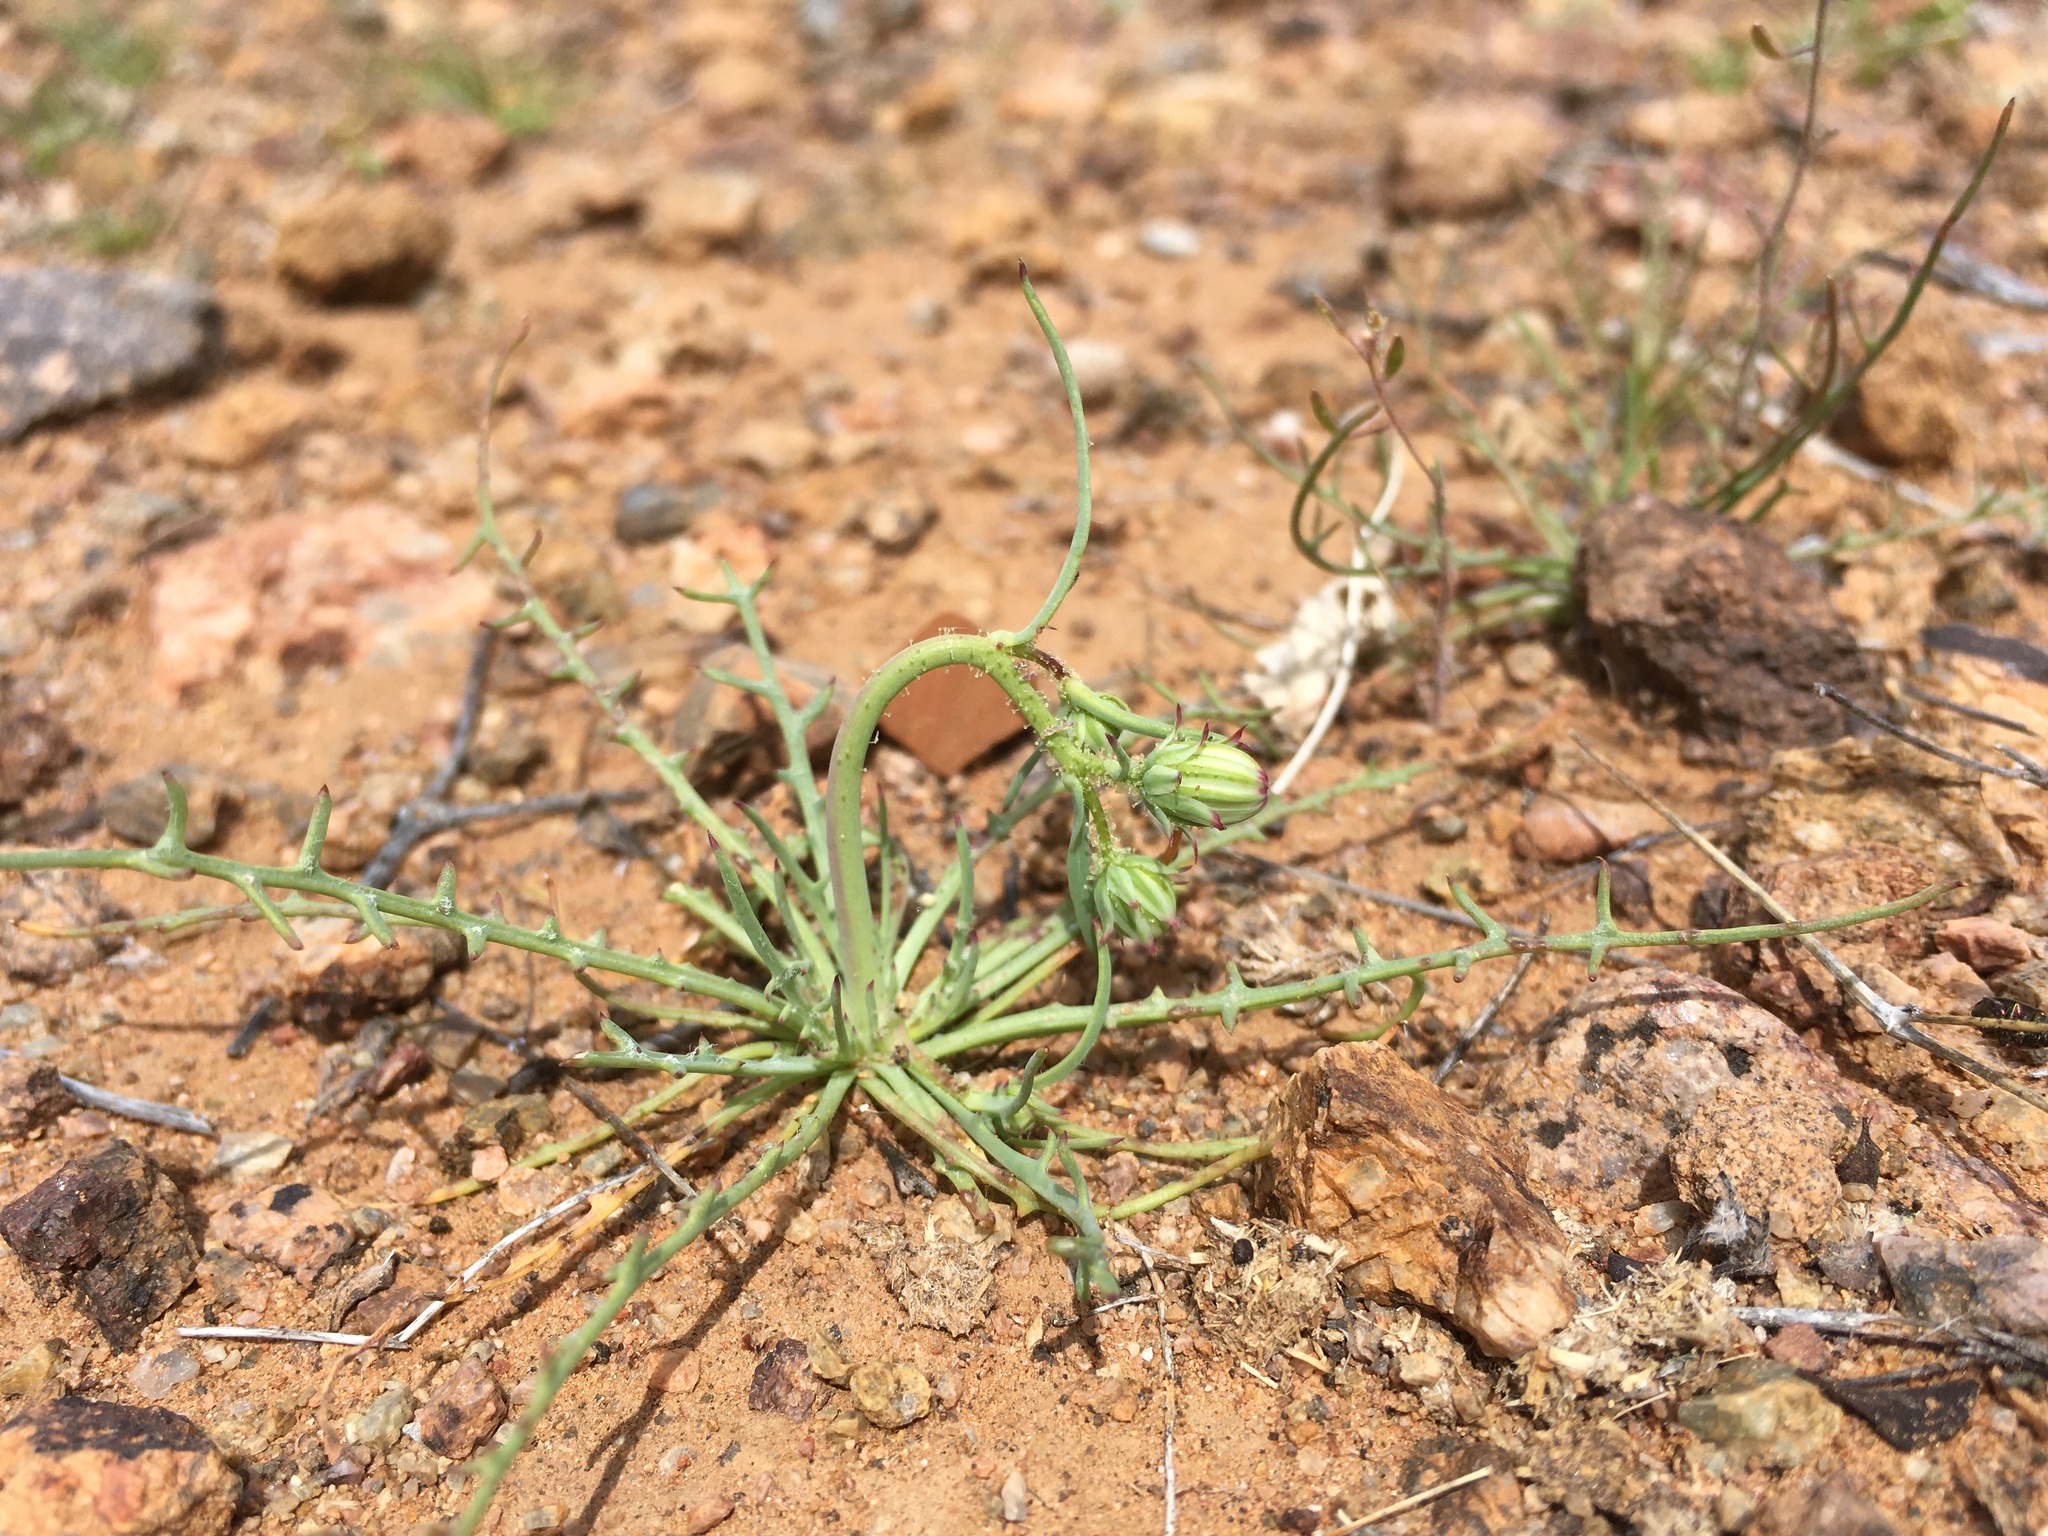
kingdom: Plantae
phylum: Tracheophyta
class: Magnoliopsida
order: Asterales
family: Asteraceae
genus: Calycoseris
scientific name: Calycoseris wrightii
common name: White tackstem
